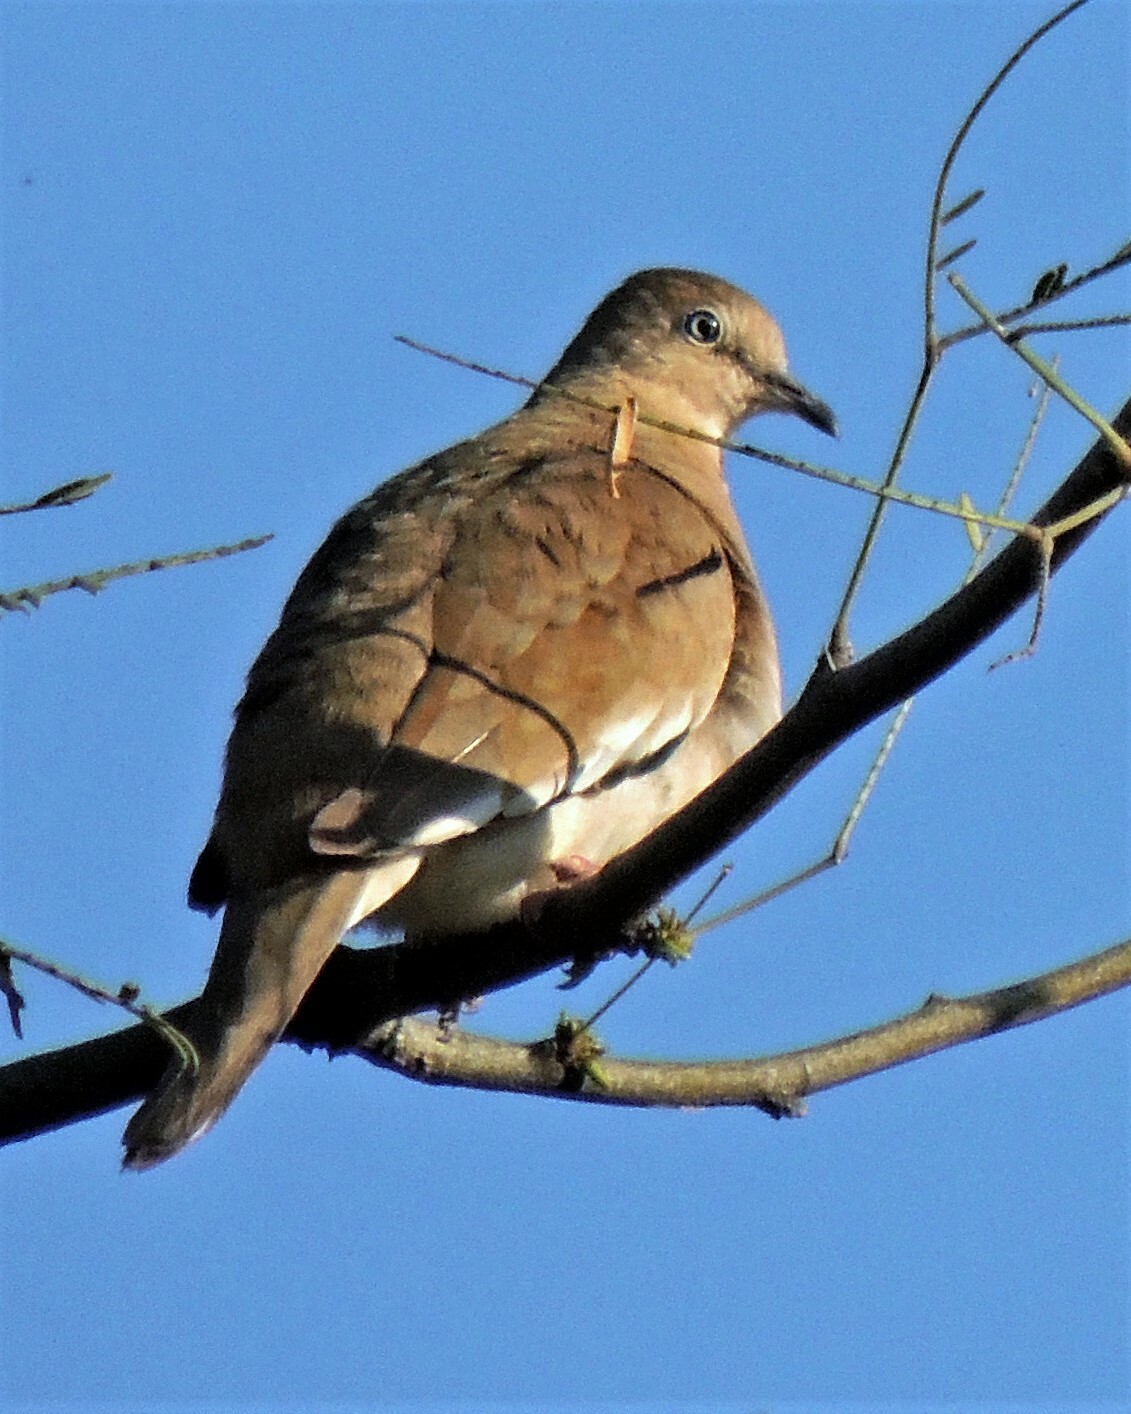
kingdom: Animalia
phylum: Chordata
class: Aves
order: Columbiformes
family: Columbidae
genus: Columbina
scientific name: Columbina picui
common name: Picui ground dove
